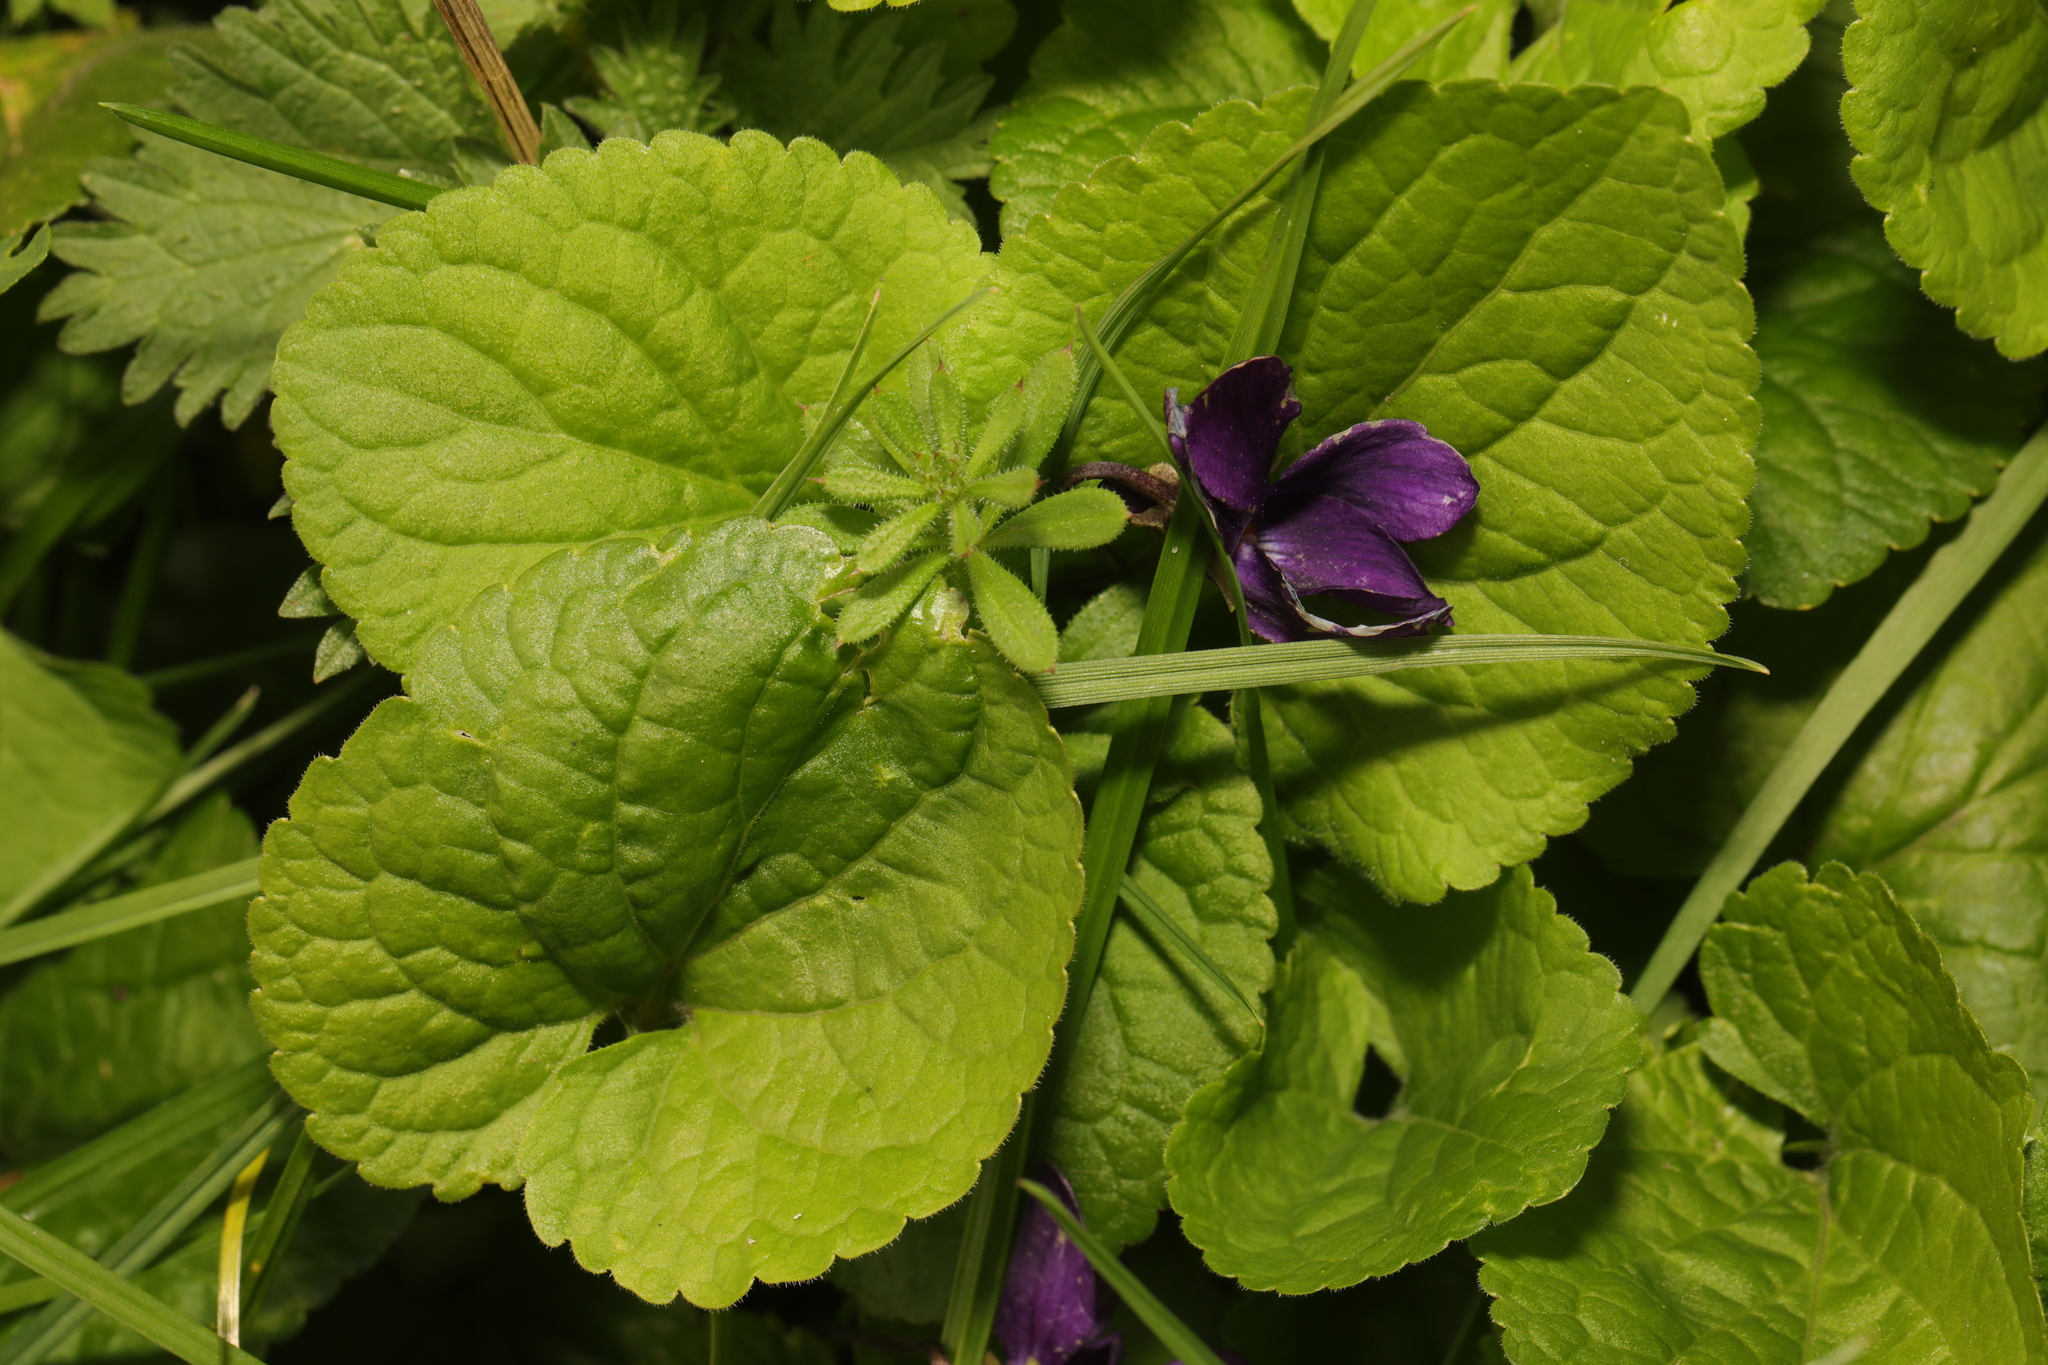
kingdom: Plantae
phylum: Tracheophyta
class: Magnoliopsida
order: Malpighiales
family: Violaceae
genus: Viola
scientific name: Viola odorata
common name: Sweet violet
